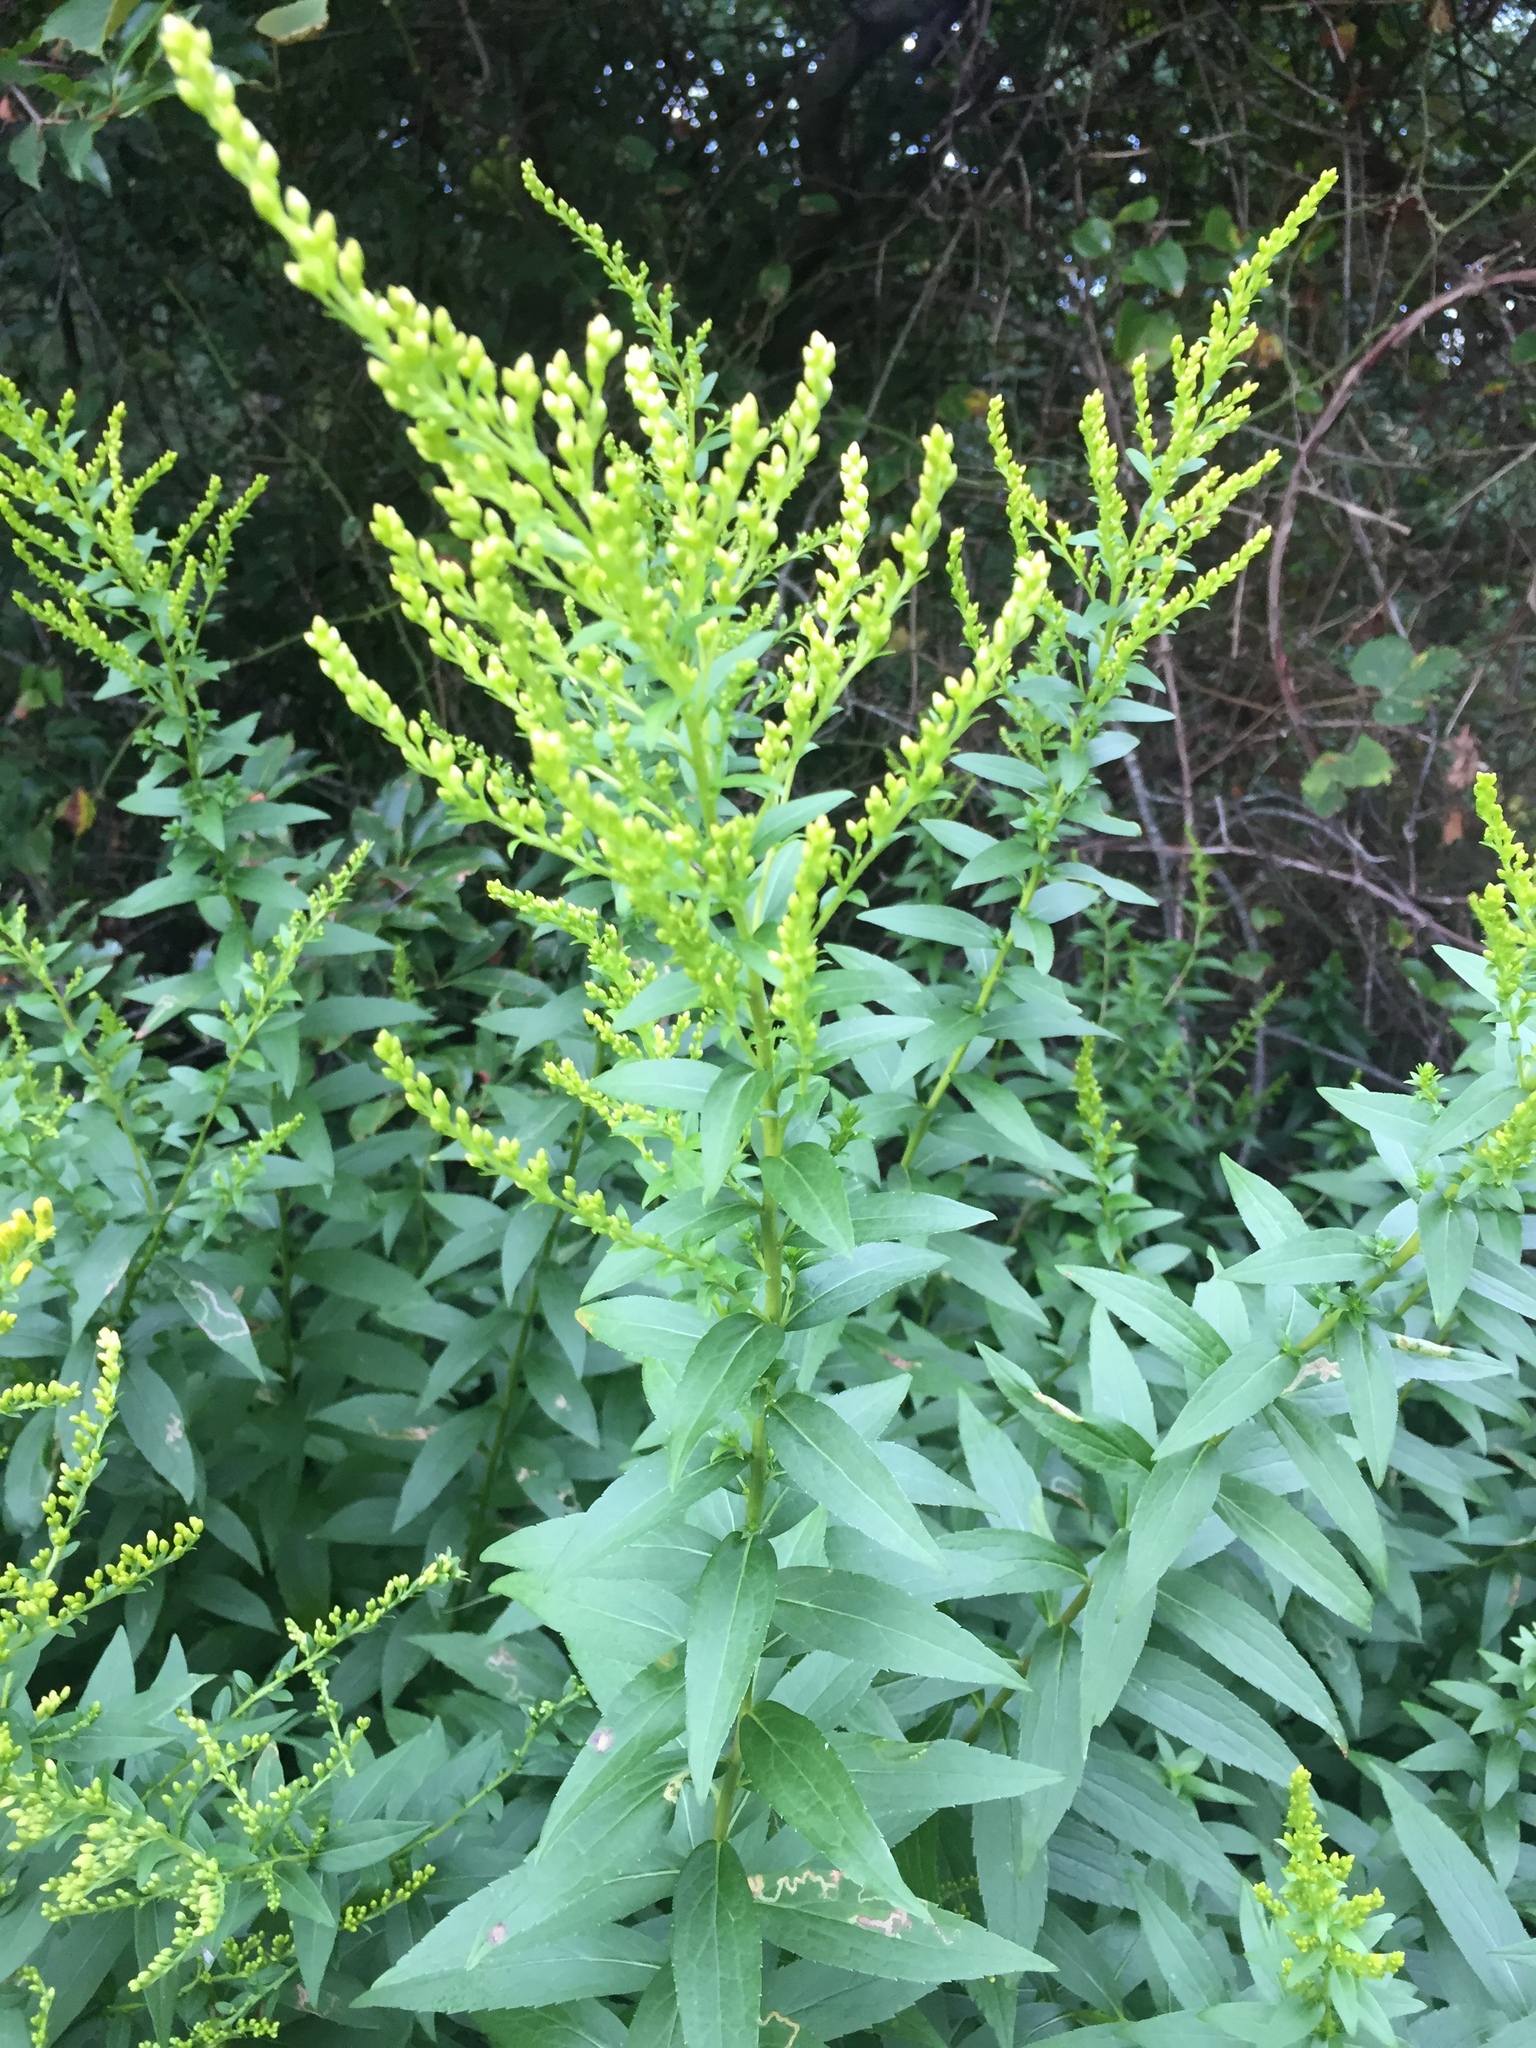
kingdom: Plantae
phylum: Tracheophyta
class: Magnoliopsida
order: Asterales
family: Asteraceae
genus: Solidago
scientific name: Solidago canadensis
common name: Canada goldenrod
